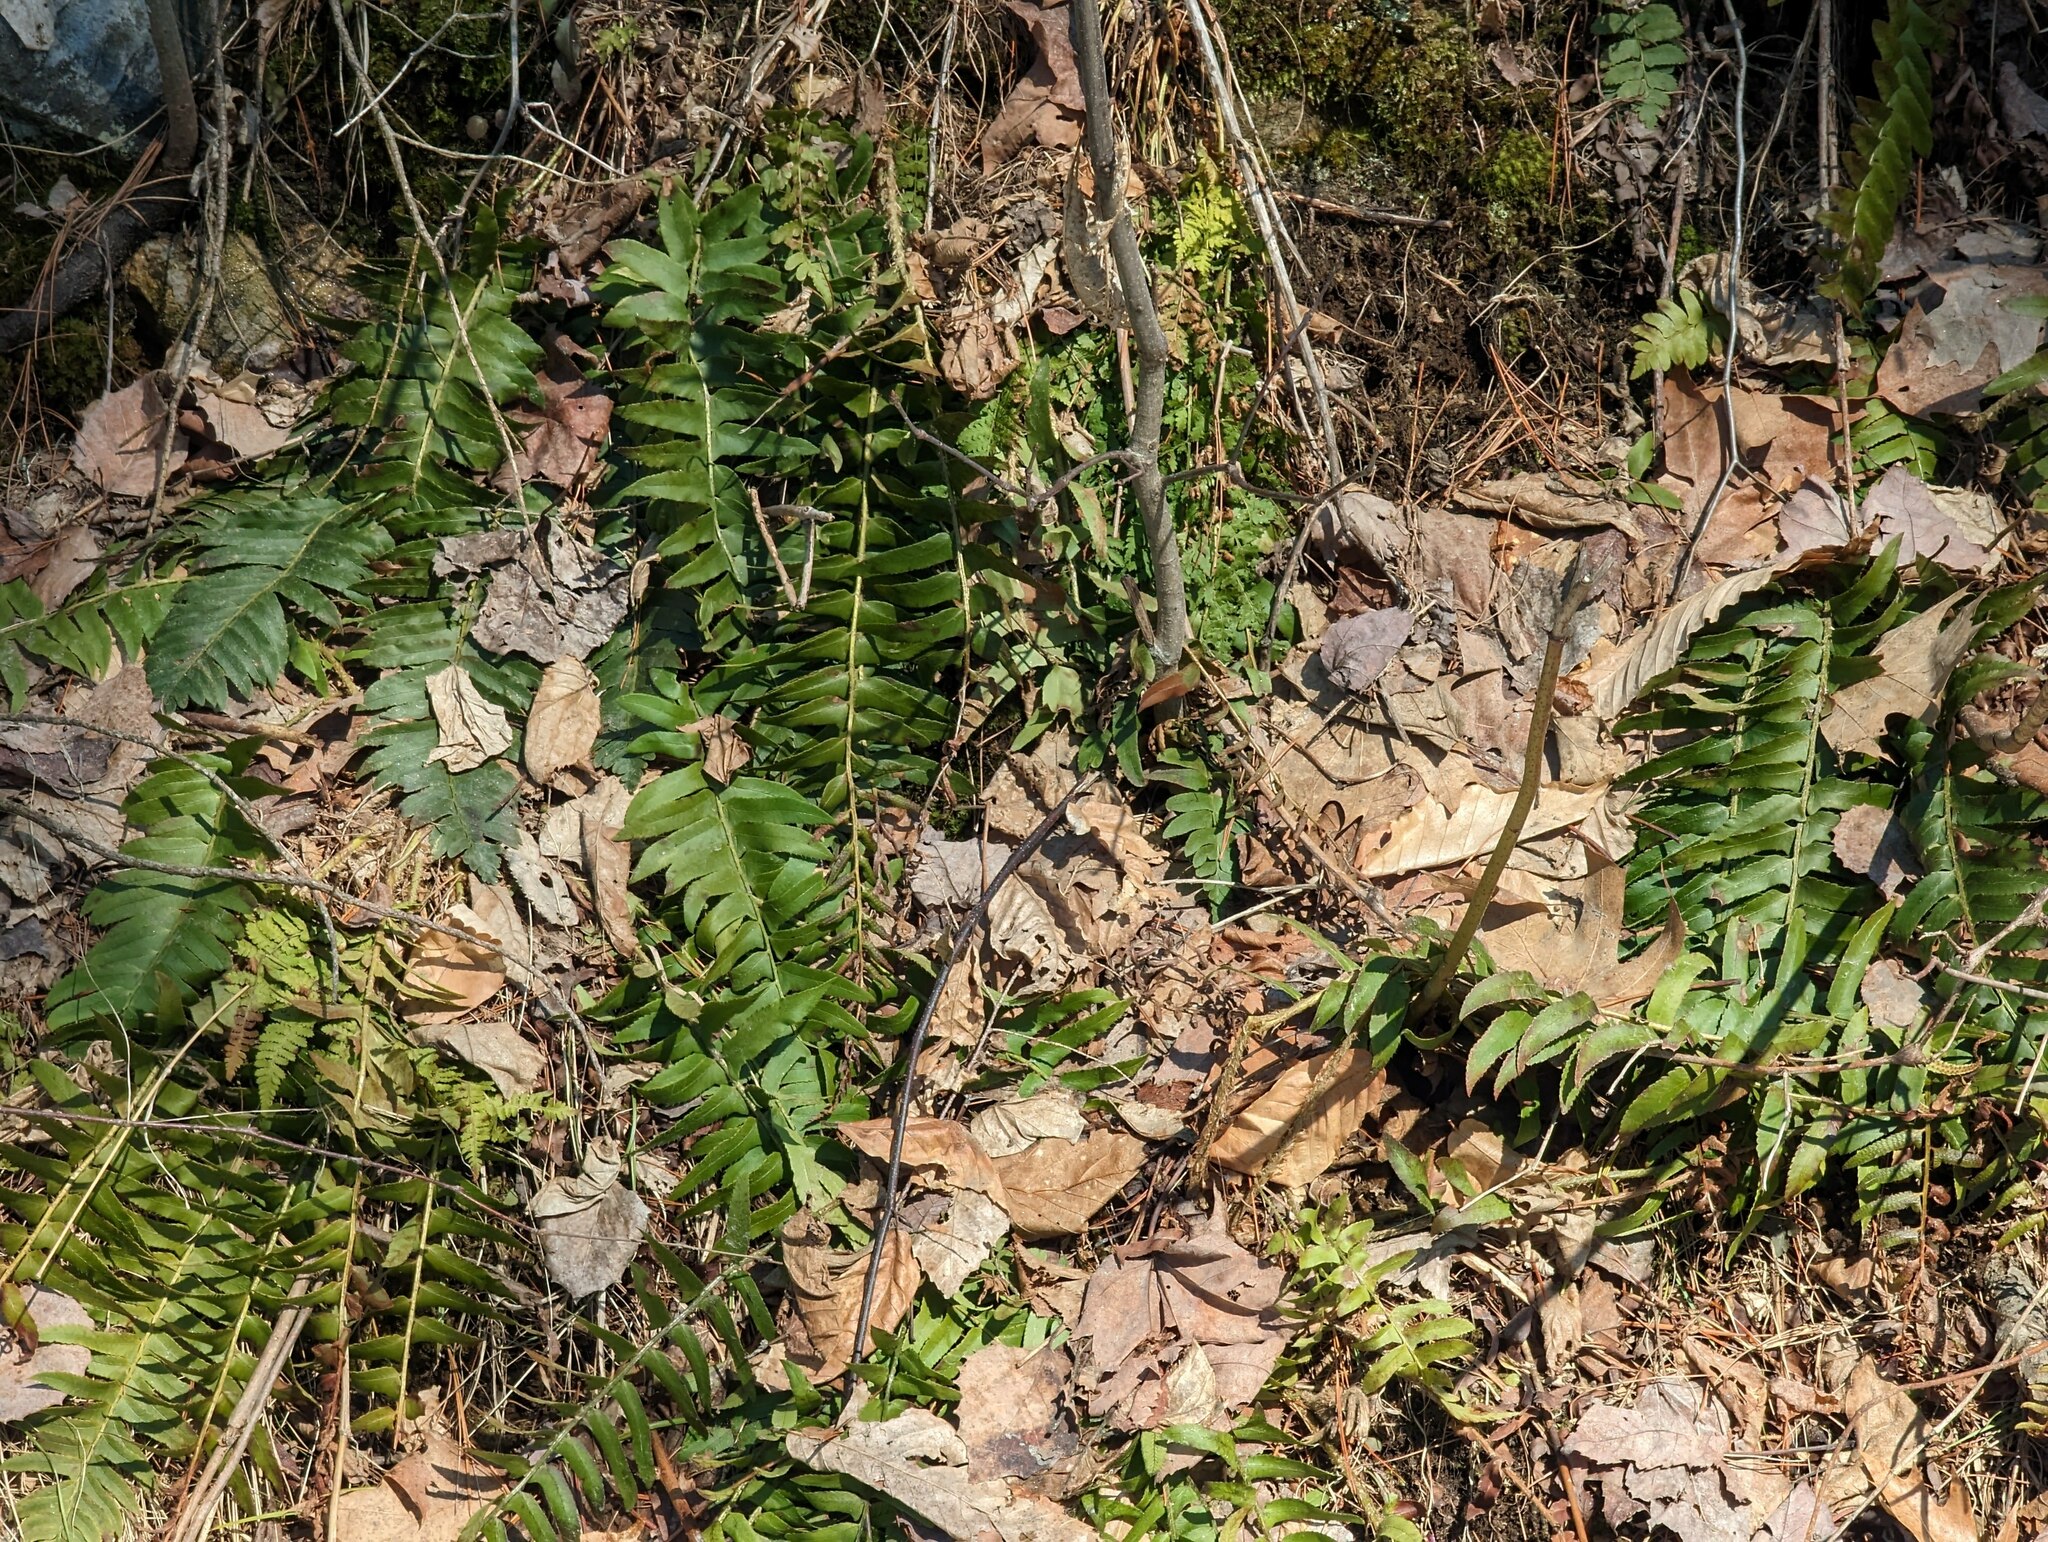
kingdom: Plantae
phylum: Tracheophyta
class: Polypodiopsida
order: Polypodiales
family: Dryopteridaceae
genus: Polystichum
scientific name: Polystichum acrostichoides
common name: Christmas fern
